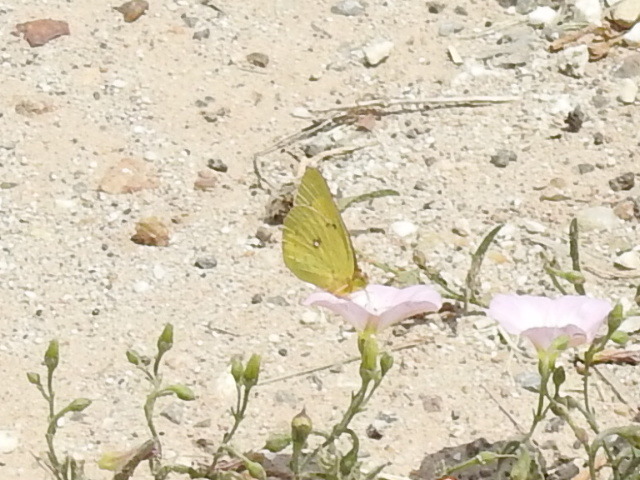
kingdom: Animalia
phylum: Arthropoda
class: Insecta
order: Lepidoptera
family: Pieridae
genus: Colias
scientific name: Colias eurytheme
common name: Alfalfa butterfly
